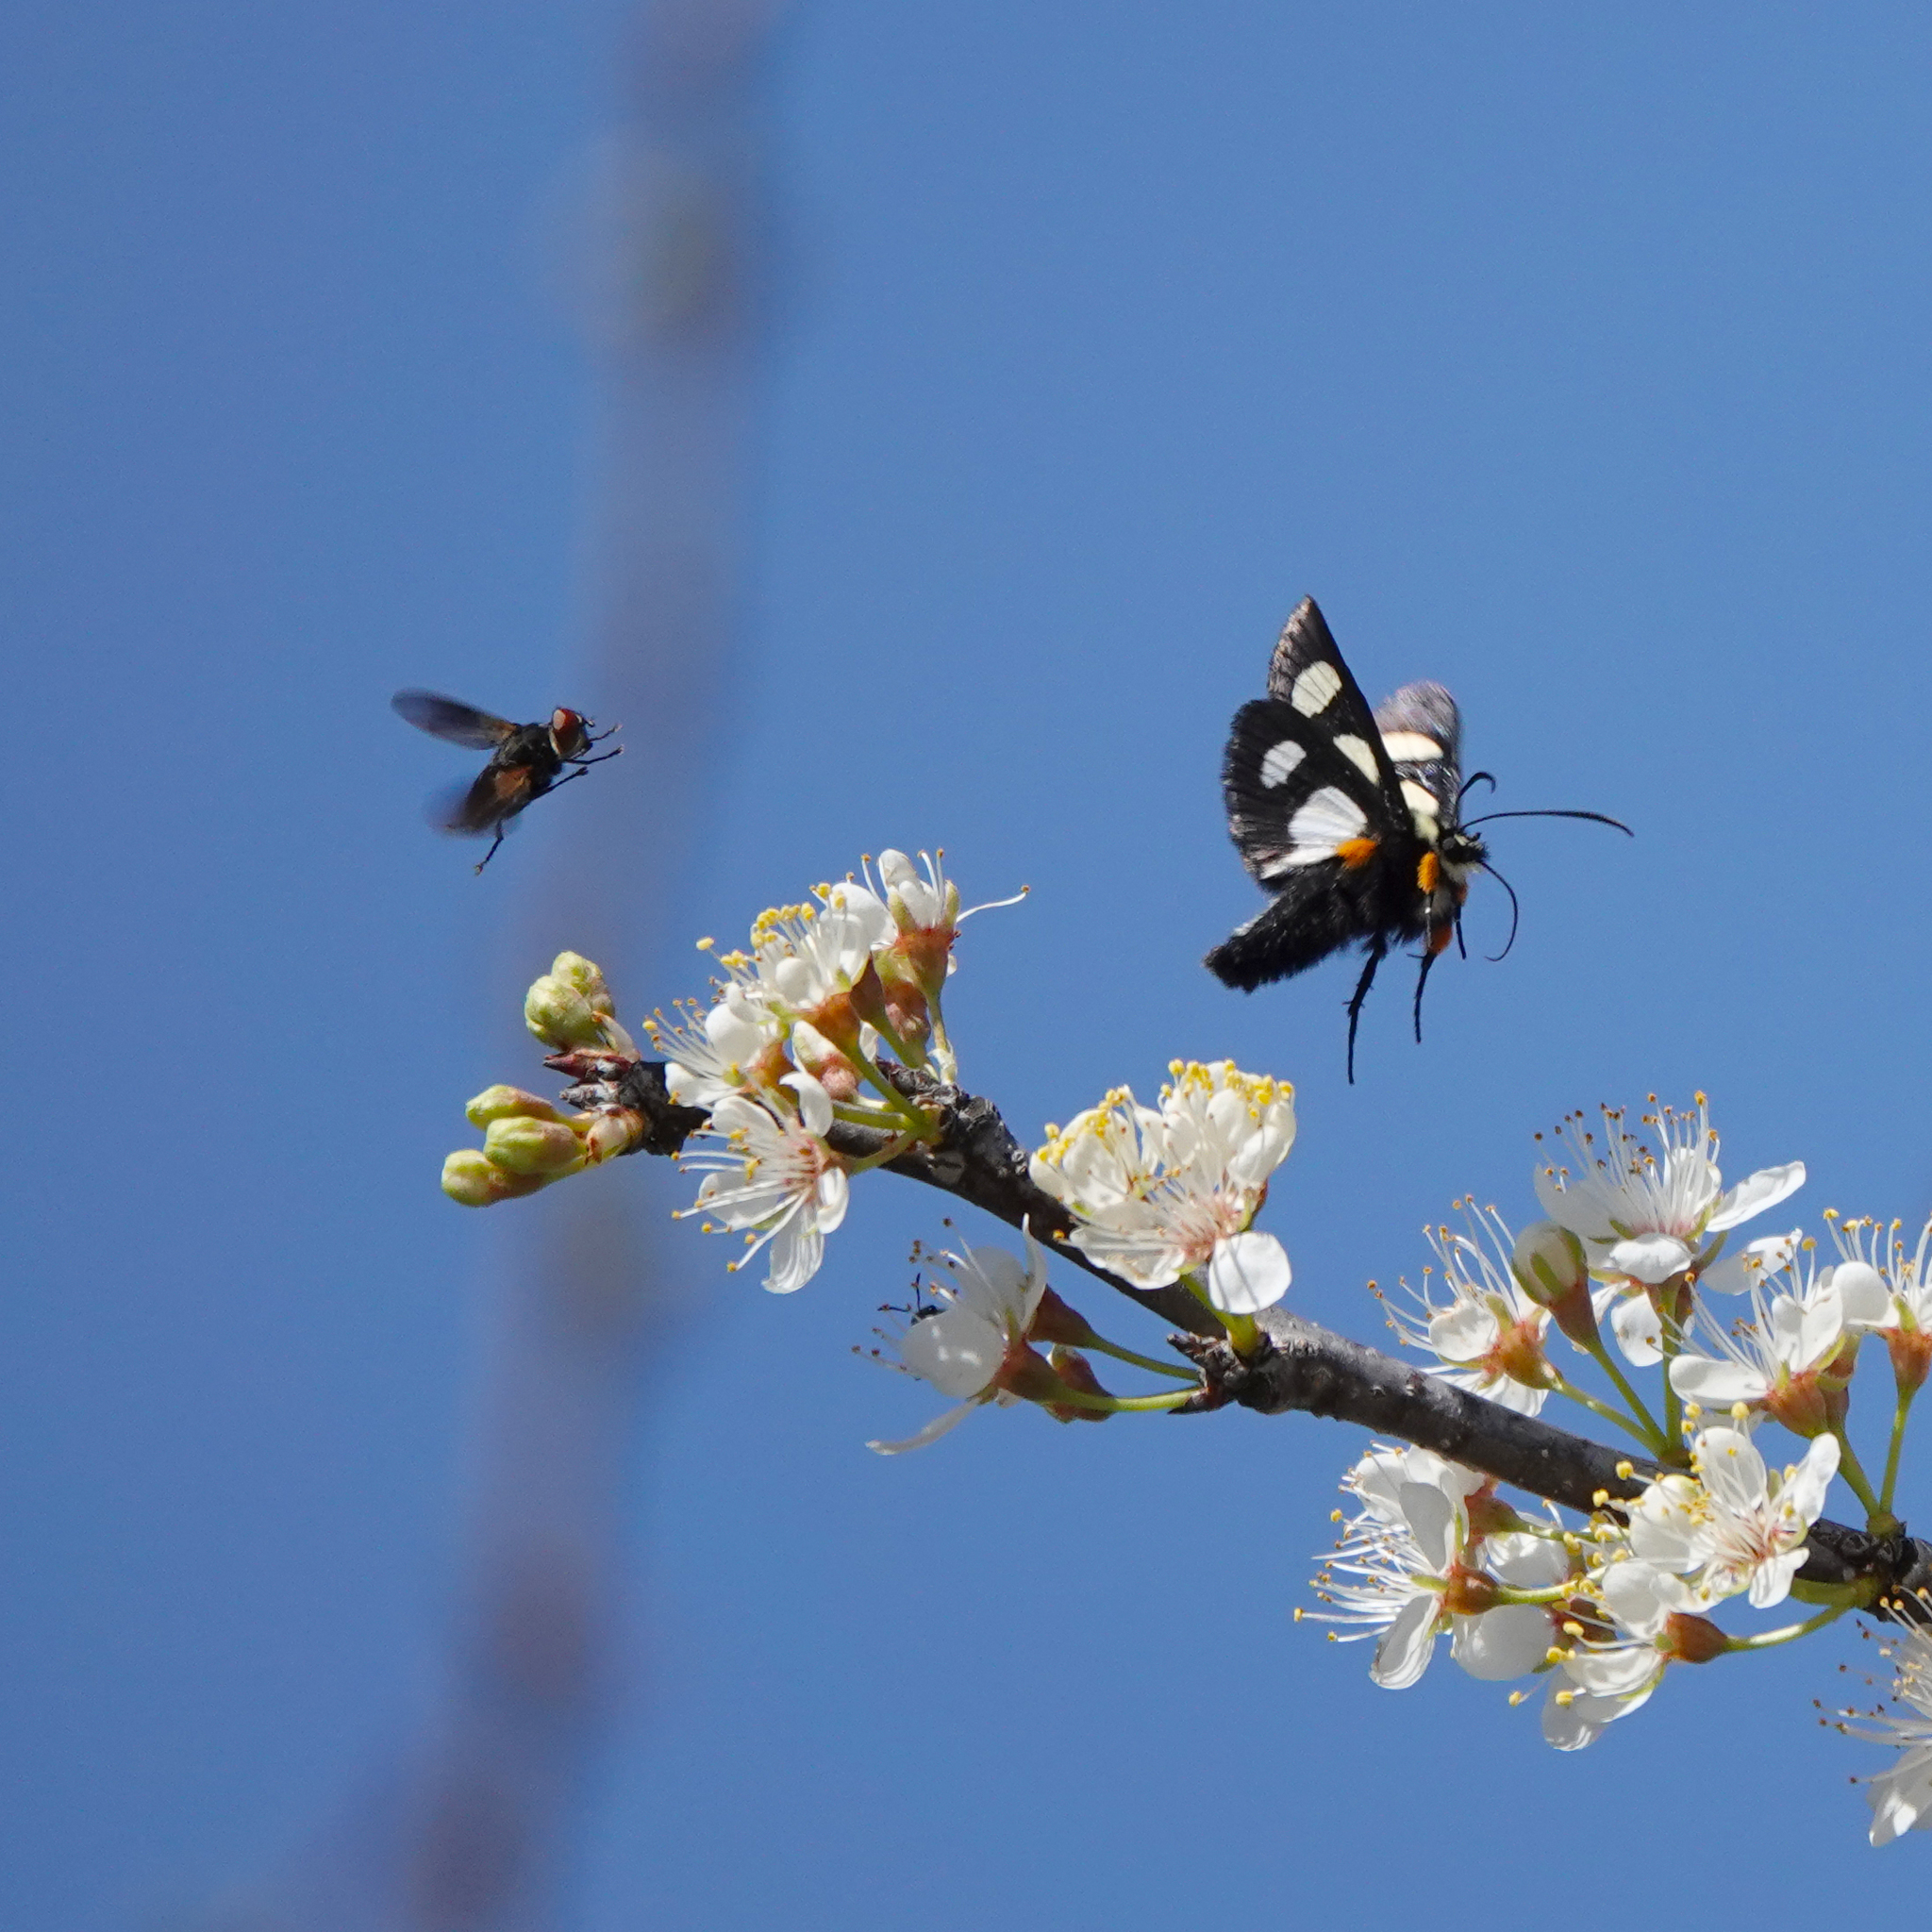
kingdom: Animalia
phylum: Arthropoda
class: Insecta
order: Lepidoptera
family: Noctuidae
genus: Alypia
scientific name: Alypia octomaculata
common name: Eight-spotted forester
